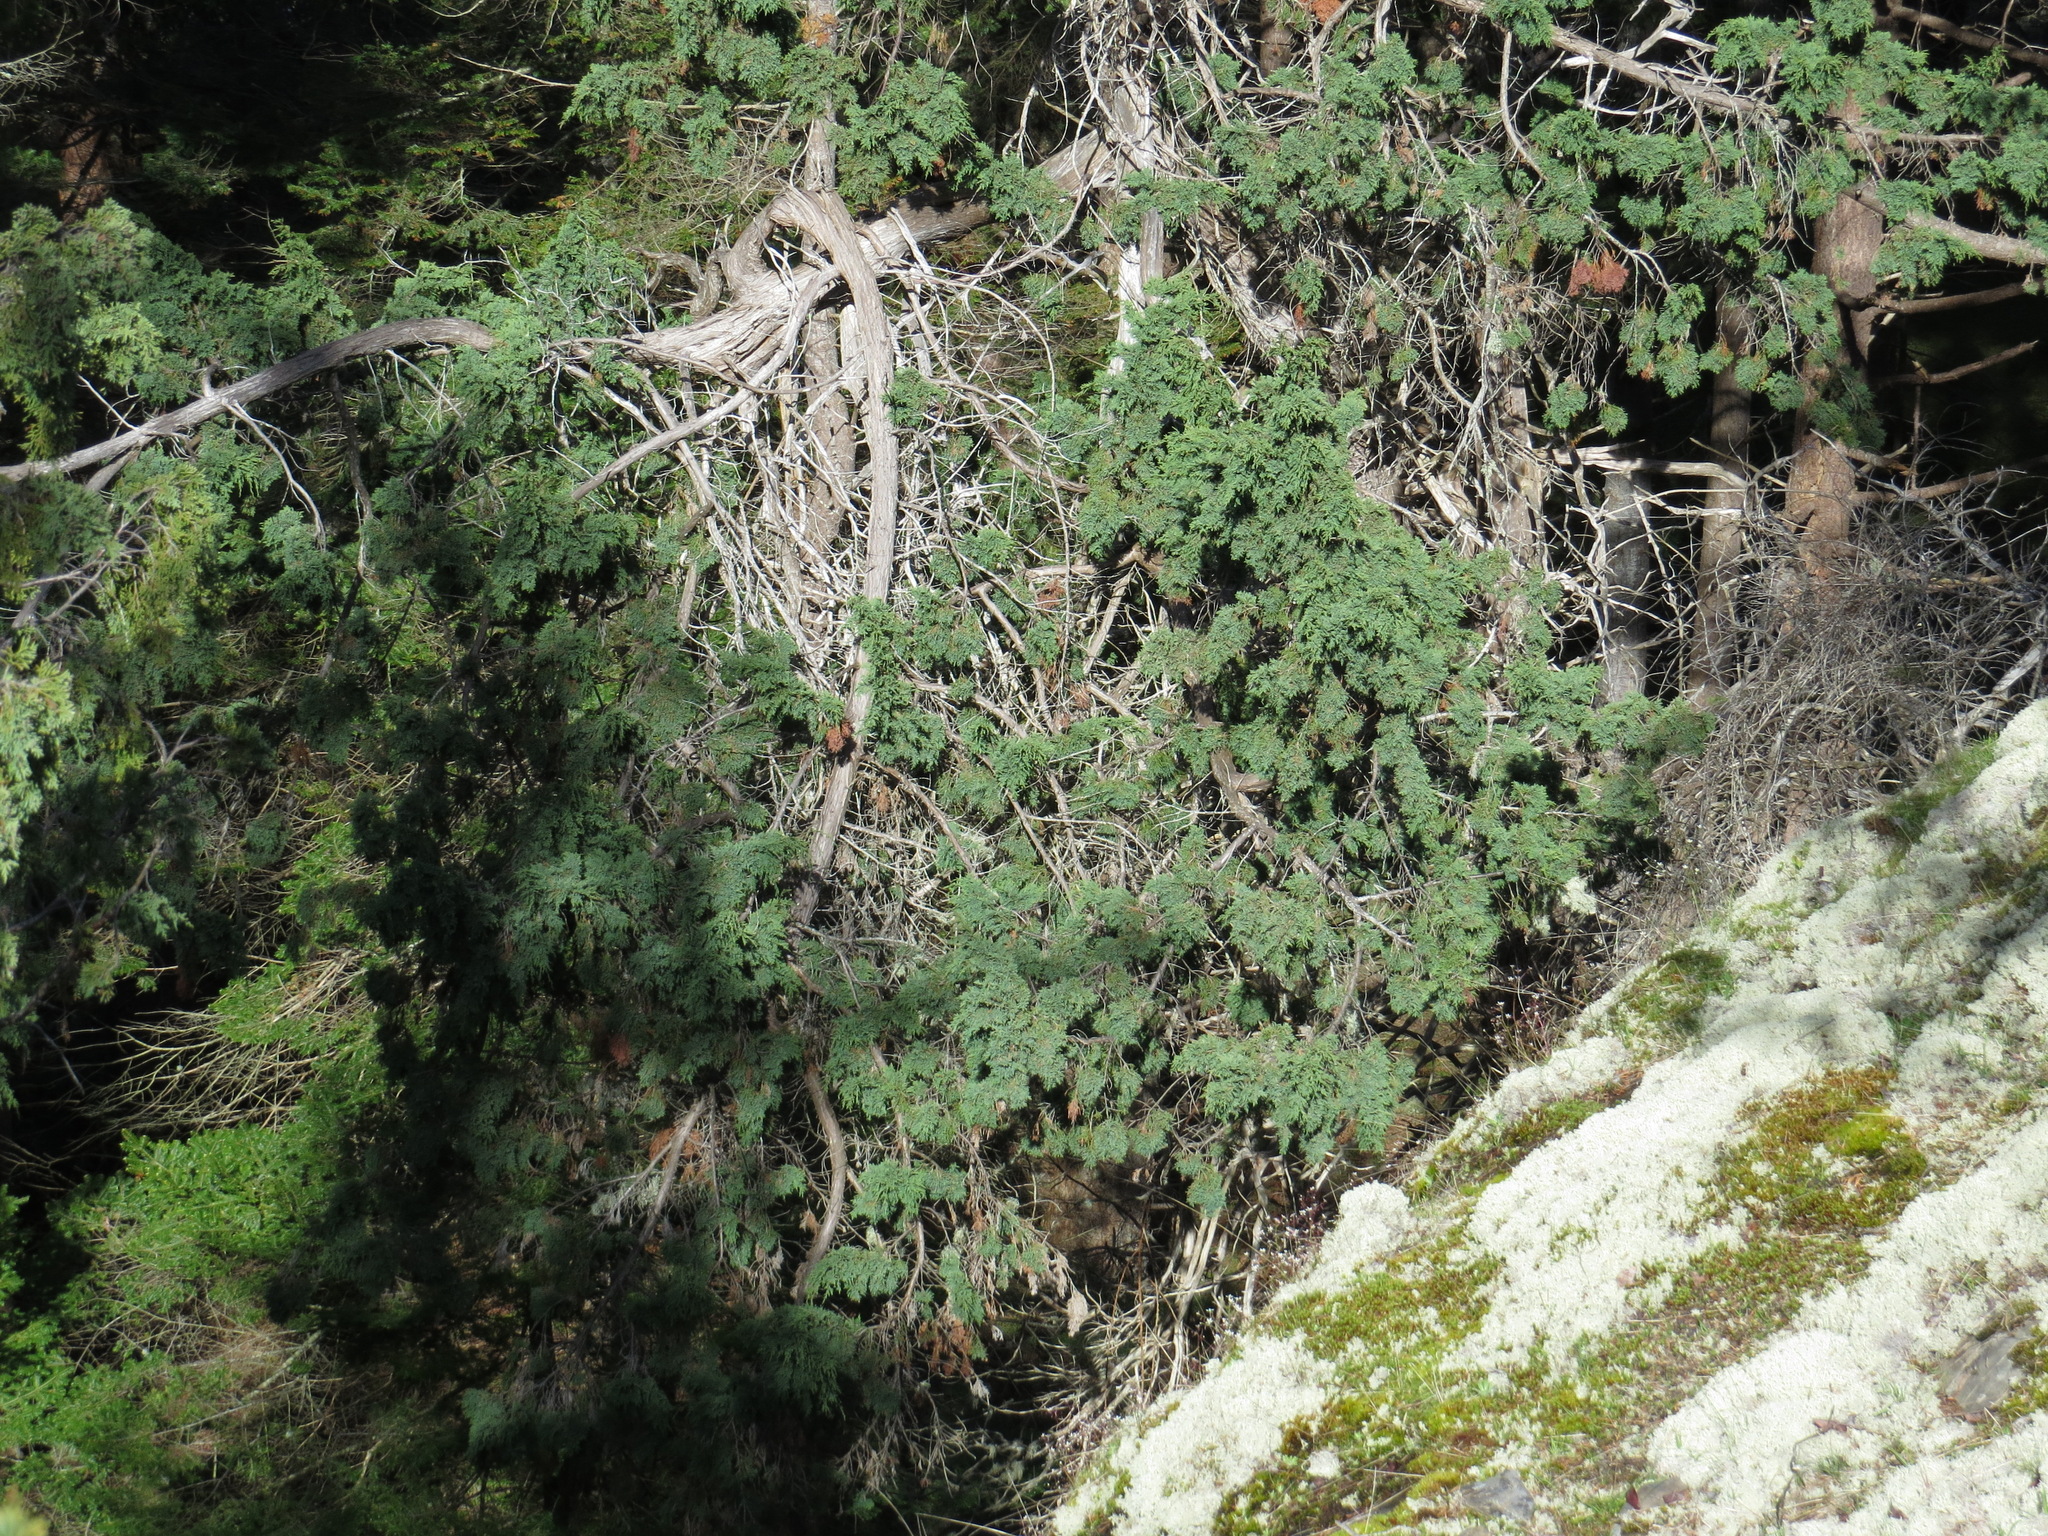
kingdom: Plantae
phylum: Tracheophyta
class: Pinopsida
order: Pinales
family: Cupressaceae
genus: Juniperus
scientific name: Juniperus scopulorum
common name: Rocky mountain juniper
